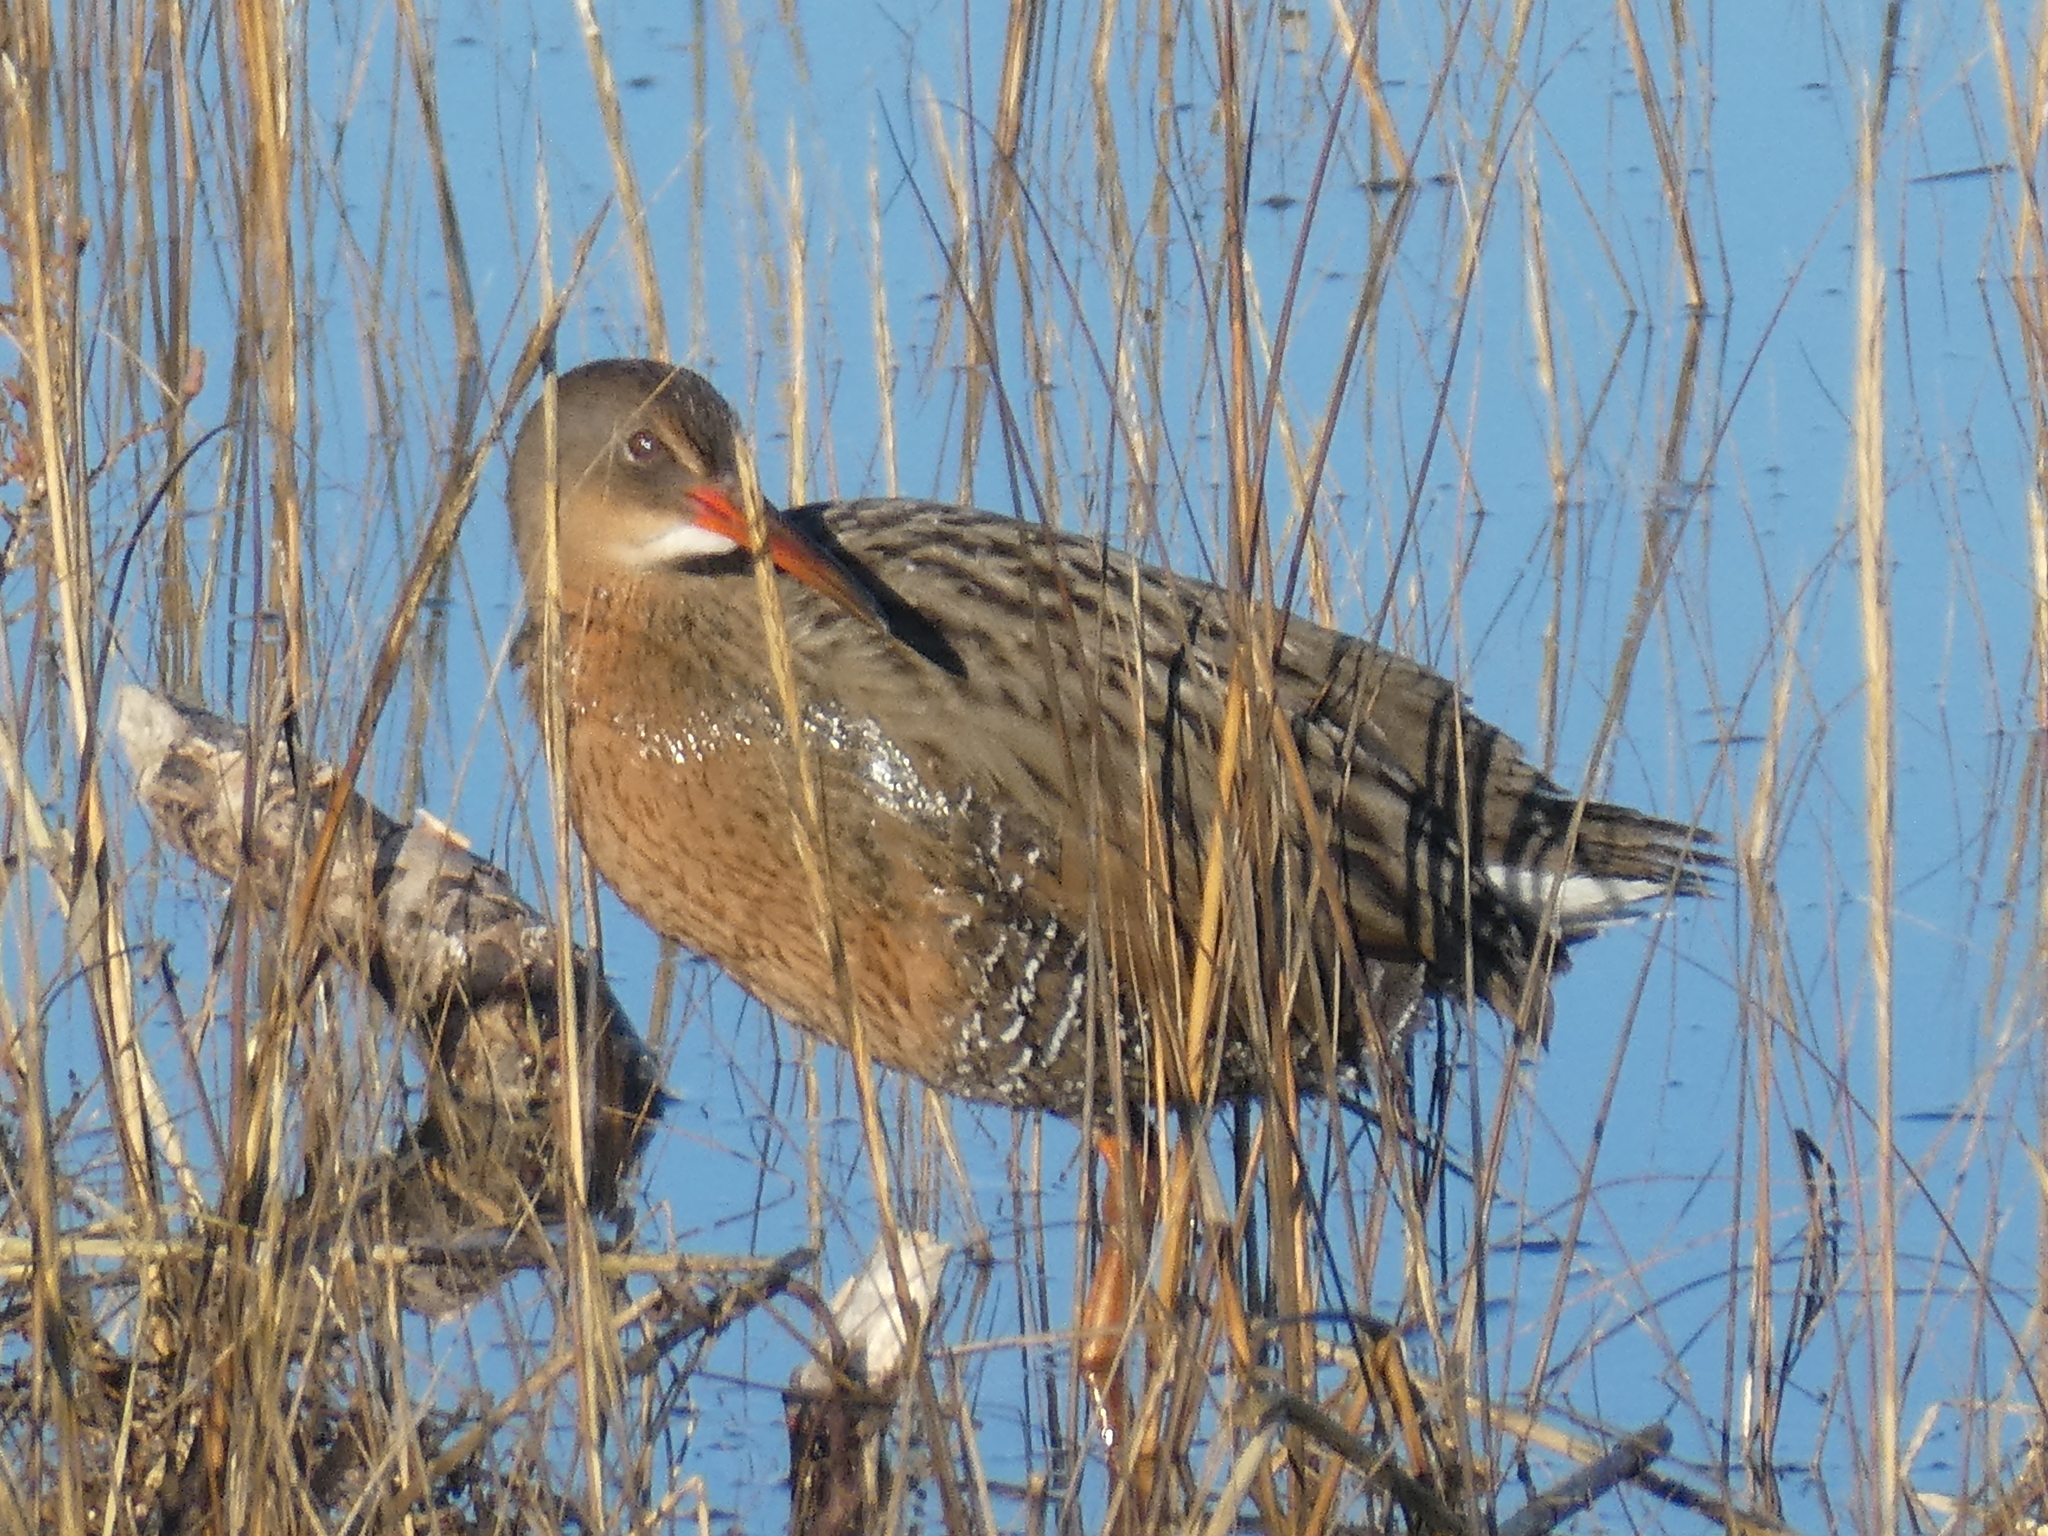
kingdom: Animalia
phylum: Chordata
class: Aves
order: Gruiformes
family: Rallidae
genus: Rallus
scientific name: Rallus limicola
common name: Virginia rail
